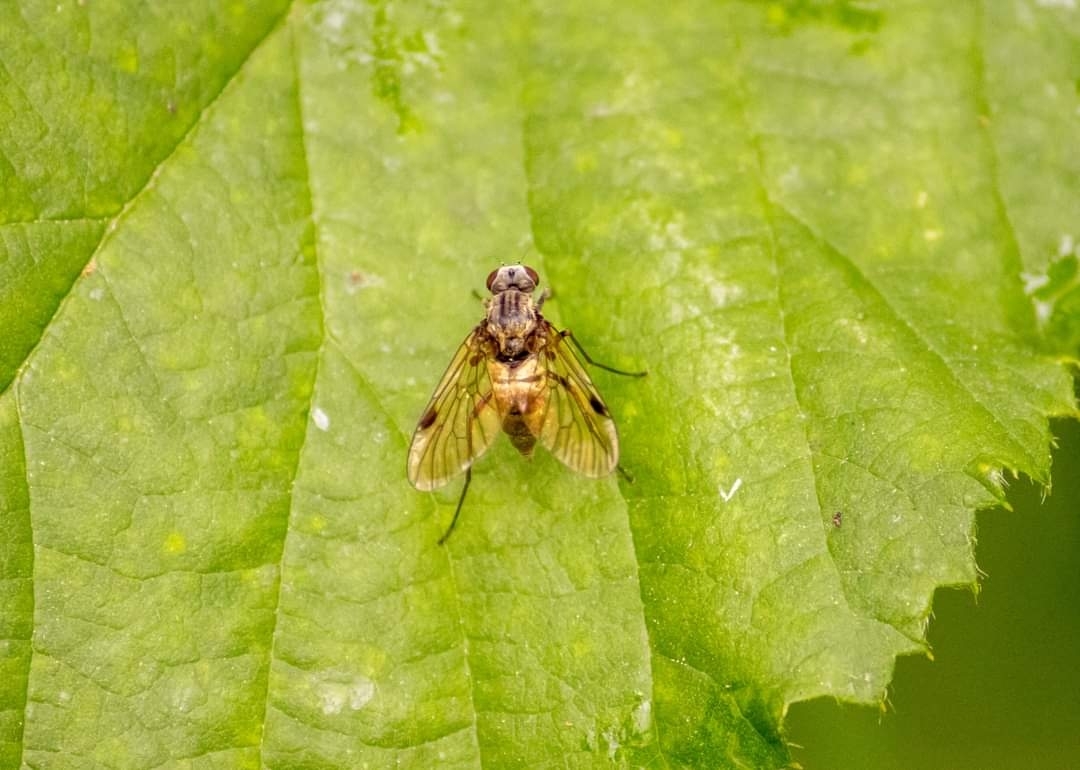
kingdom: Animalia
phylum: Arthropoda
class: Insecta
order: Diptera
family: Rhagionidae
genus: Chrysopilus
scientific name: Chrysopilus cristatus
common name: Black snipefly
